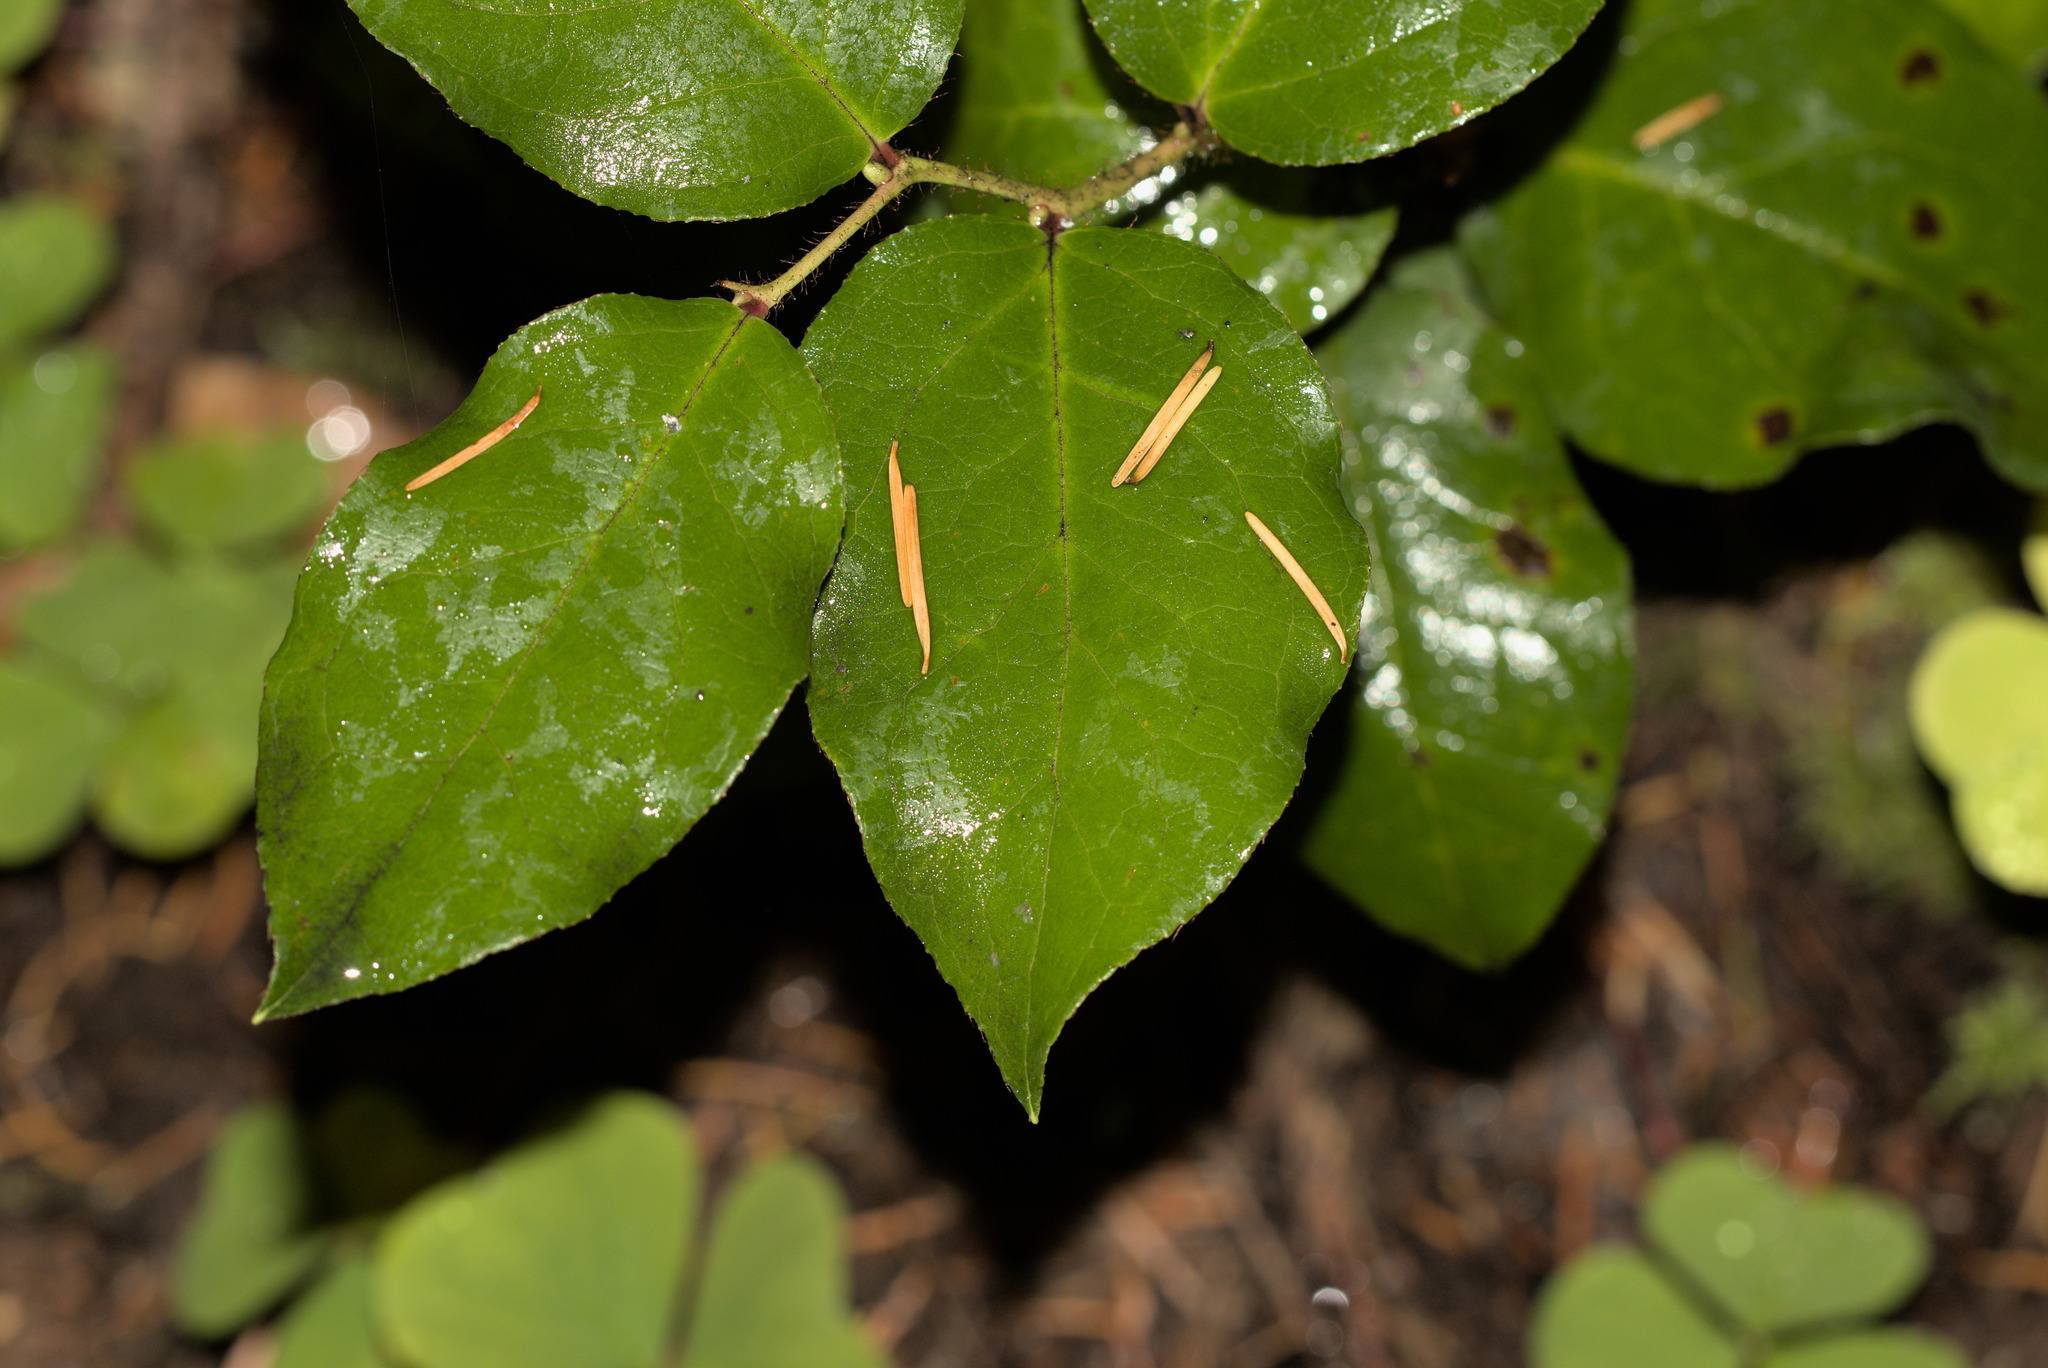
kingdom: Plantae
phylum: Tracheophyta
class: Magnoliopsida
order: Ericales
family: Ericaceae
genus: Gaultheria
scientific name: Gaultheria shallon
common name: Shallon
